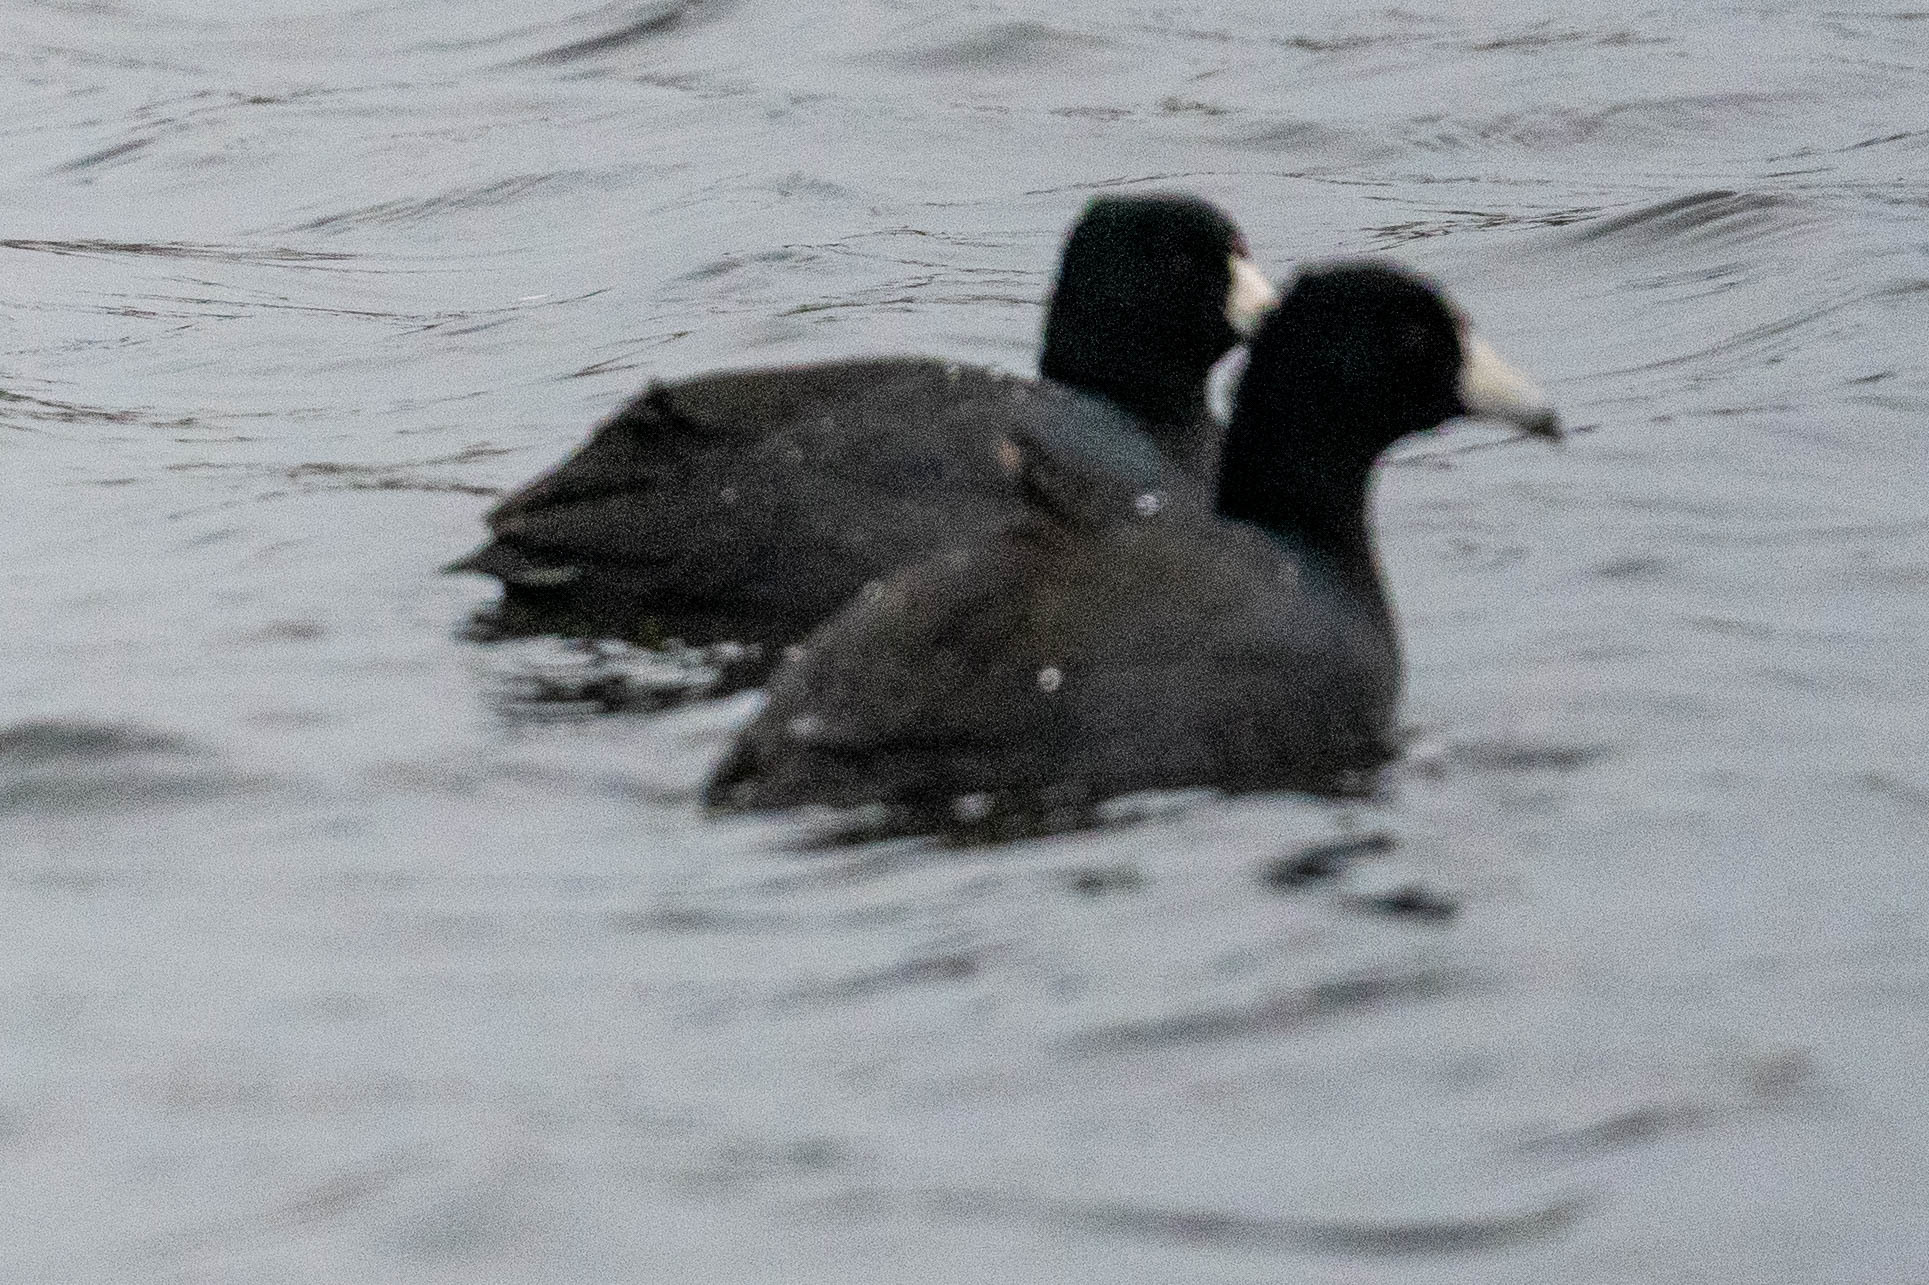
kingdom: Animalia
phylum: Chordata
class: Aves
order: Gruiformes
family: Rallidae
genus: Fulica
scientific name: Fulica americana
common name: American coot
